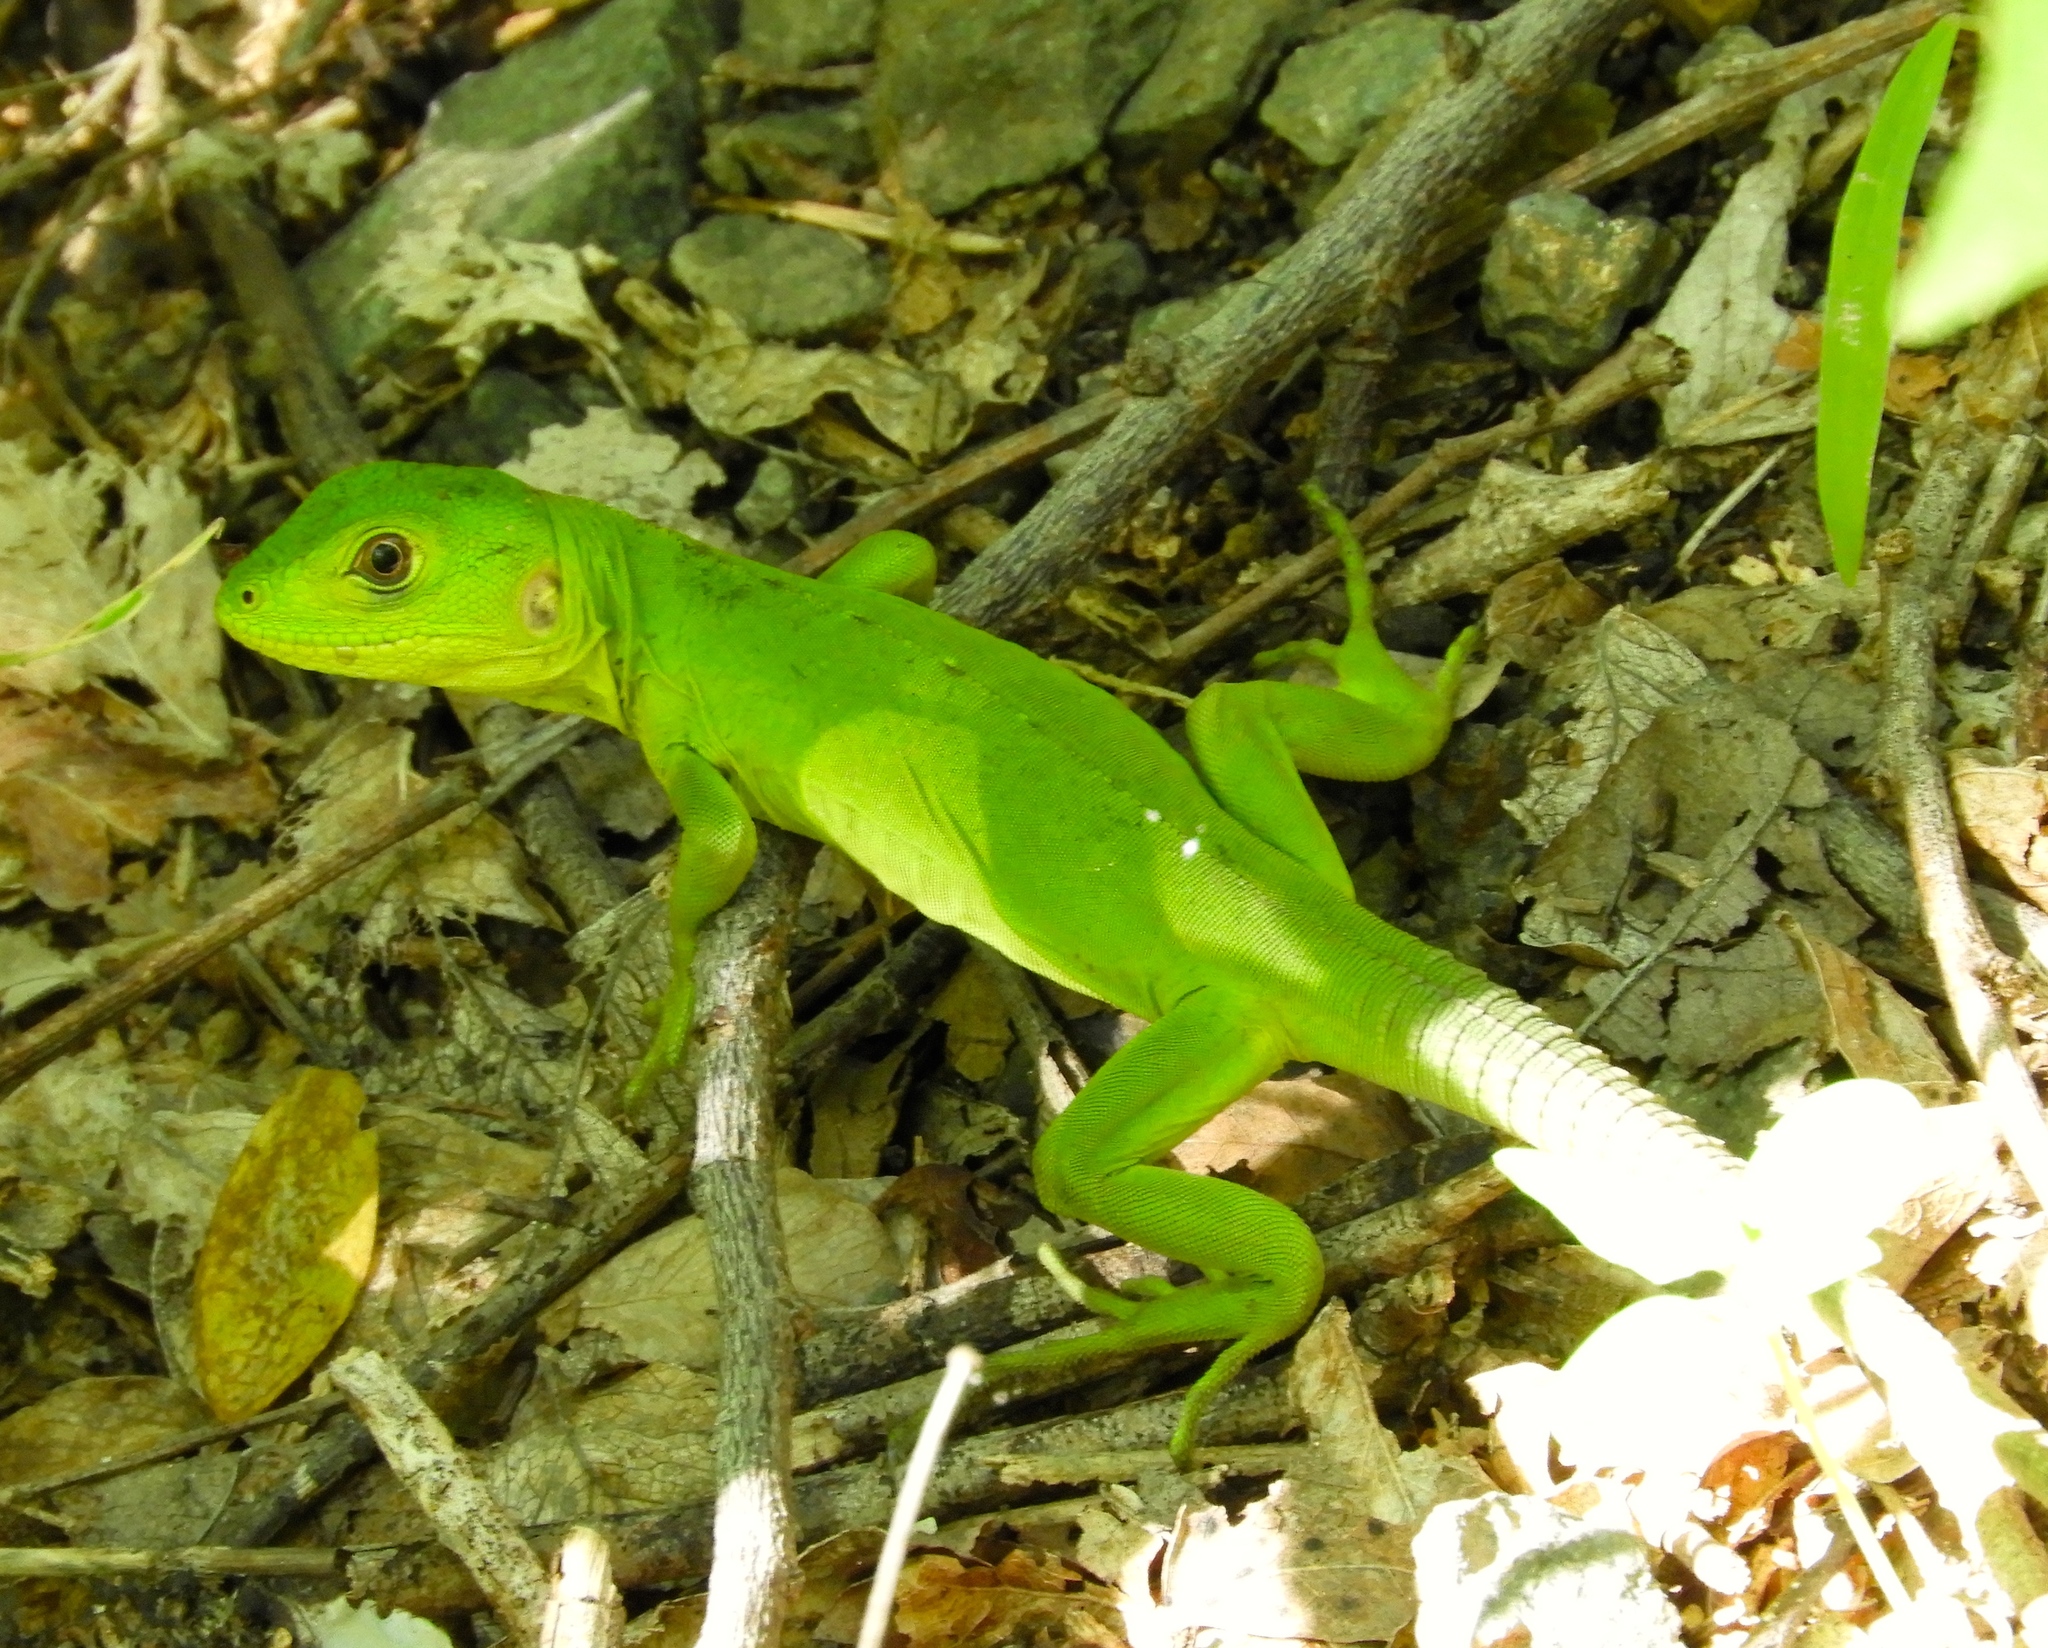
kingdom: Animalia
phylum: Chordata
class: Squamata
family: Iguanidae
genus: Ctenosaura
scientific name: Ctenosaura pectinata
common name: Guerreran spiny-tailed iguana
